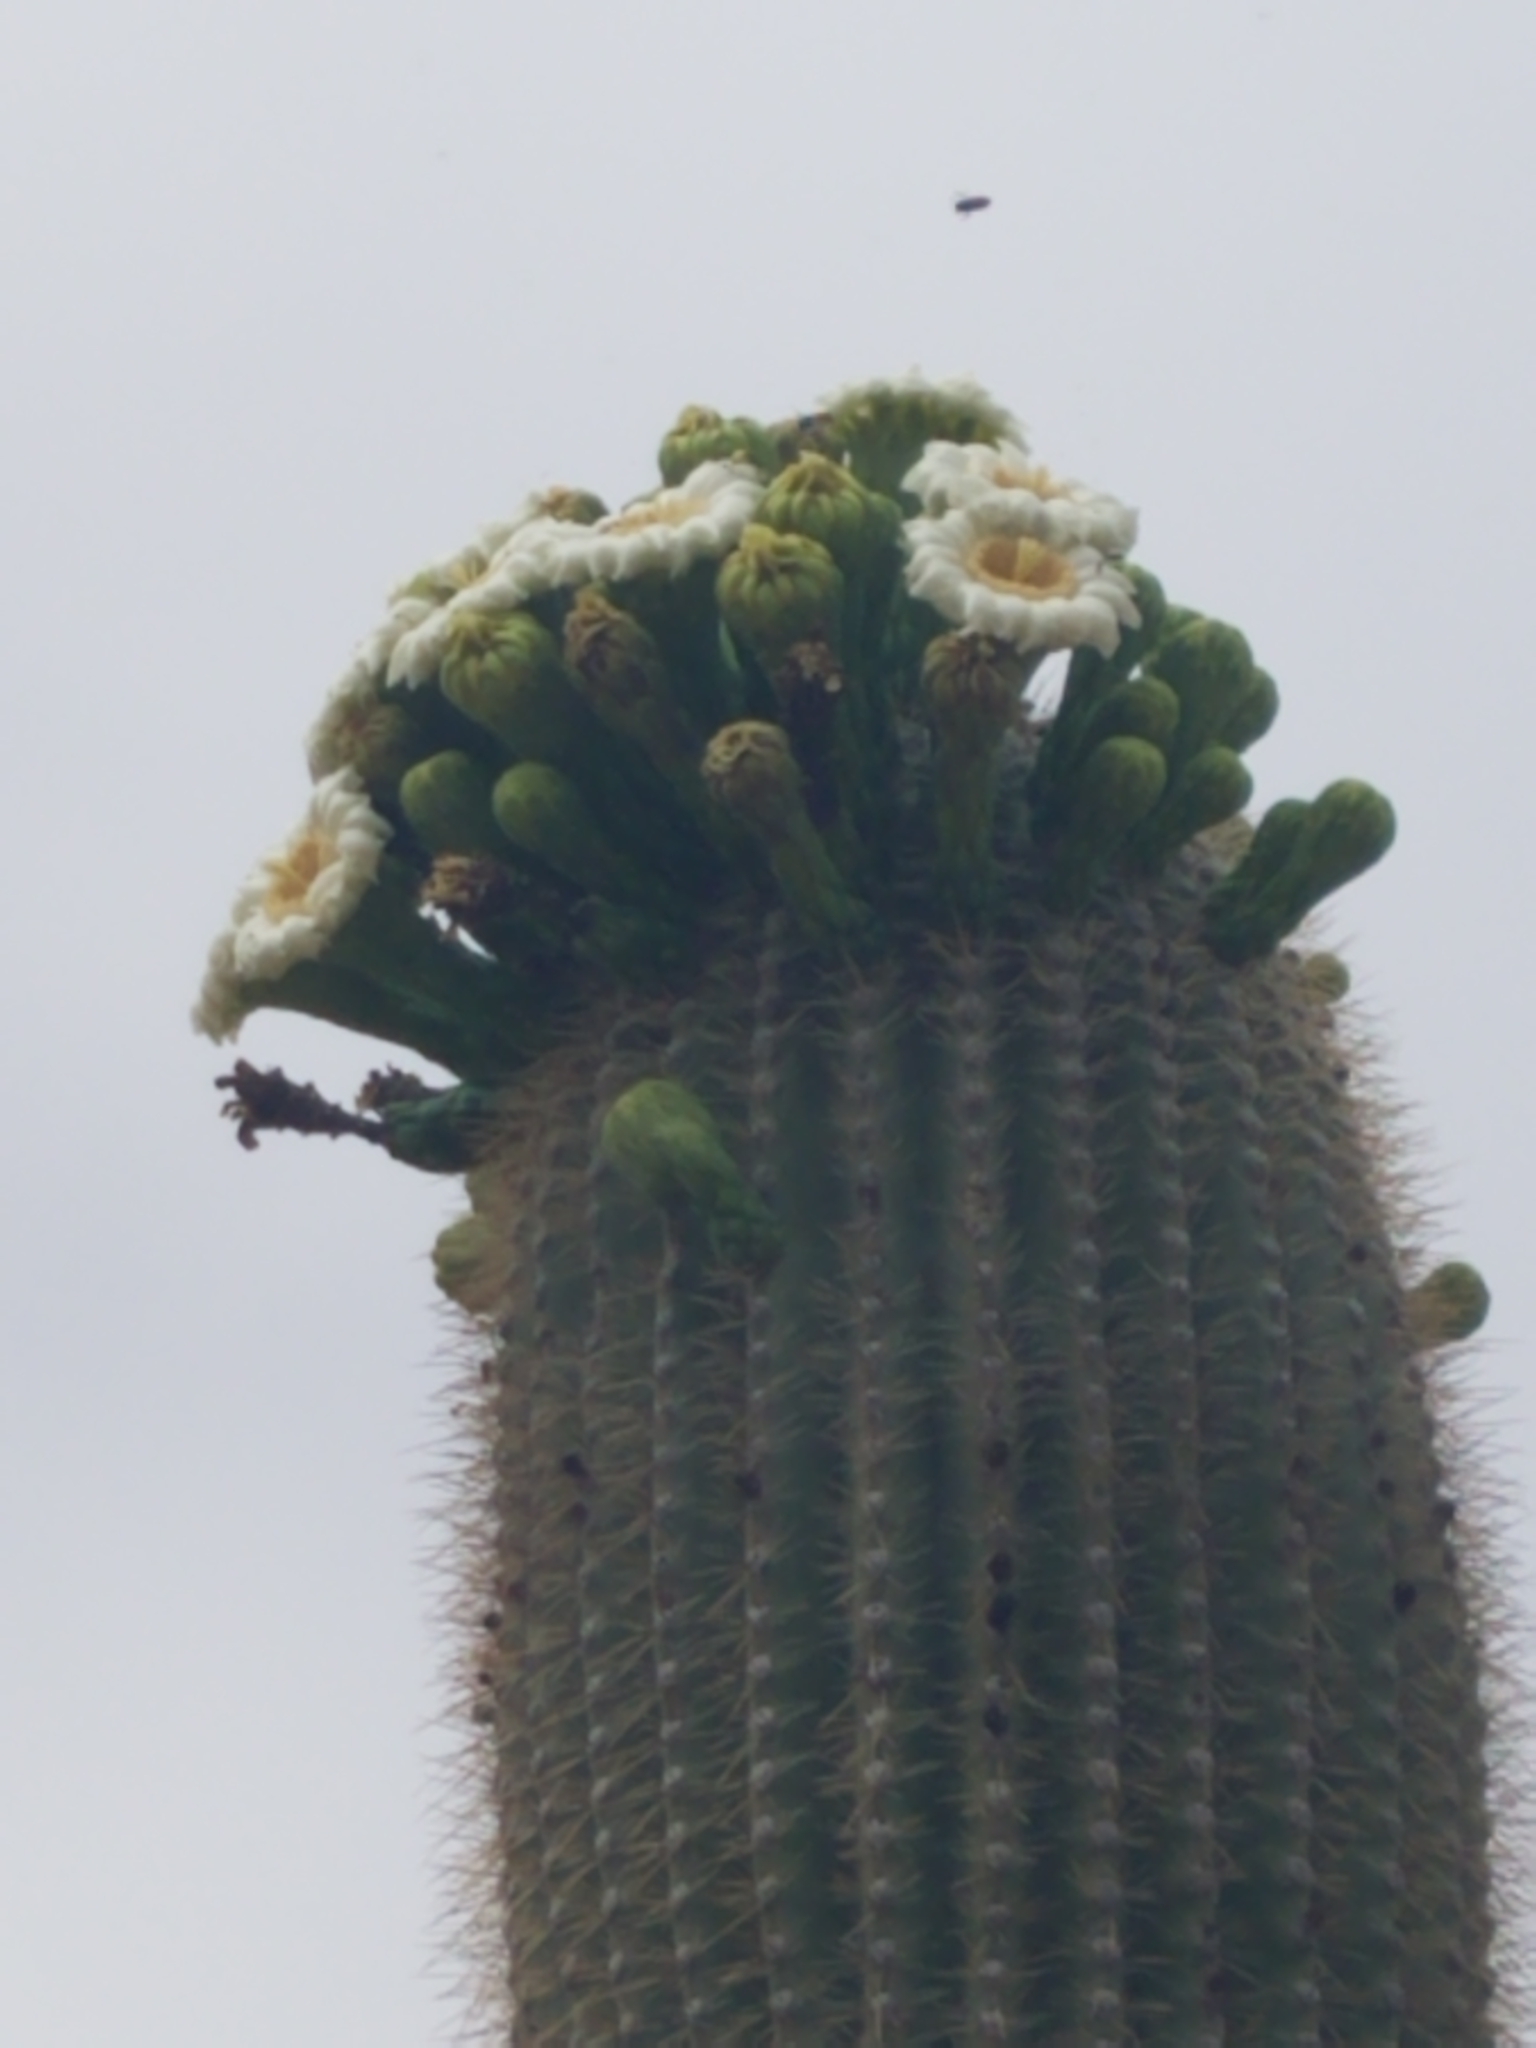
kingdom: Plantae
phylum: Tracheophyta
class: Magnoliopsida
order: Caryophyllales
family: Cactaceae
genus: Carnegiea
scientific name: Carnegiea gigantea
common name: Saguaro
